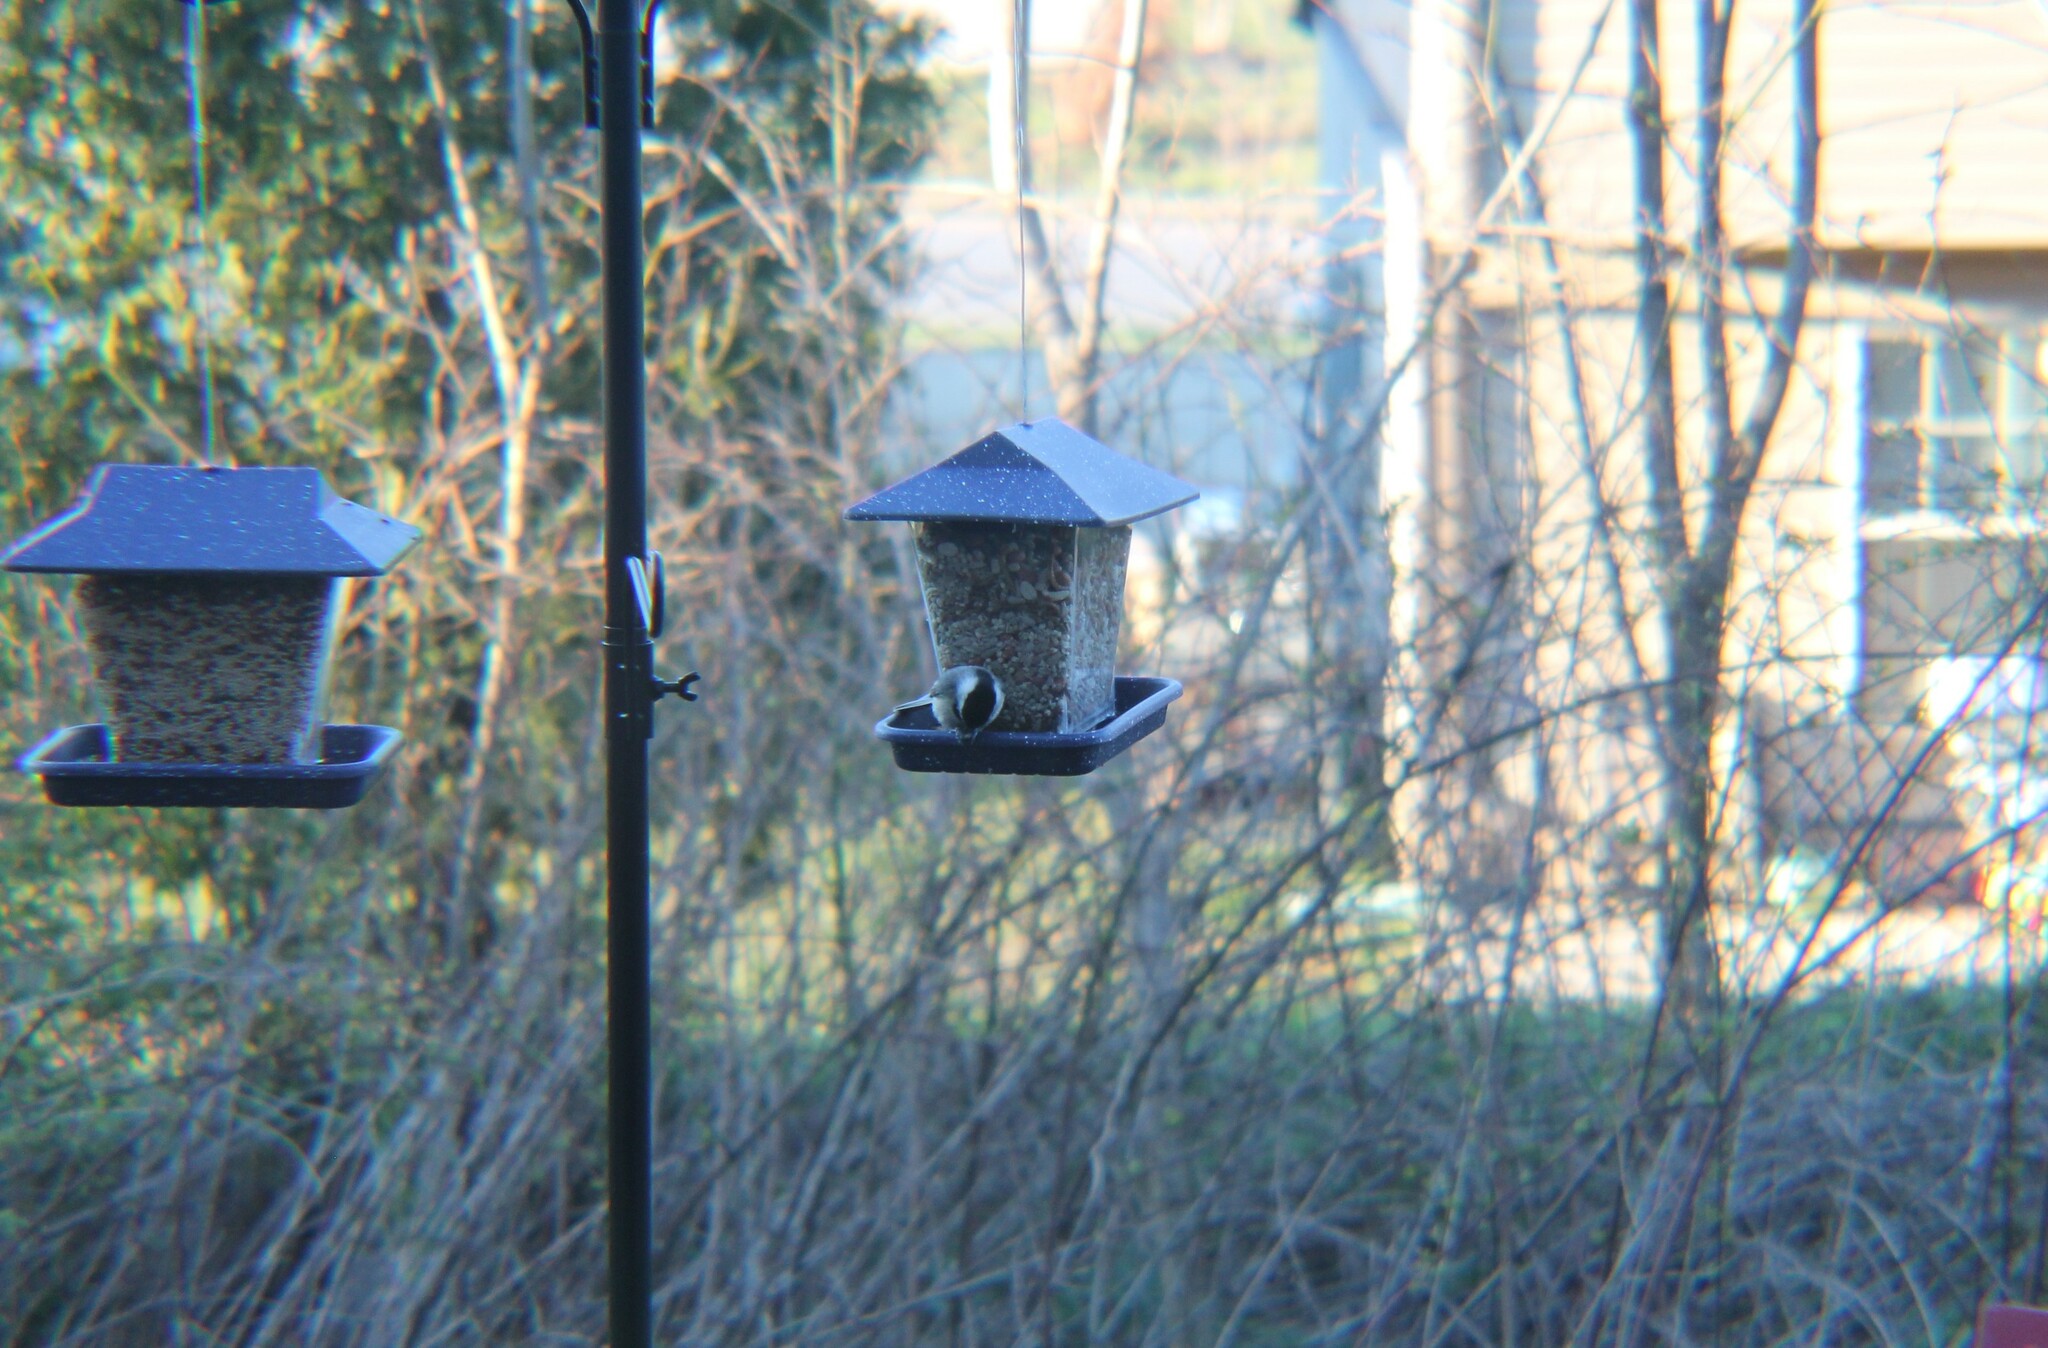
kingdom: Animalia
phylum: Chordata
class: Aves
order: Passeriformes
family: Paridae
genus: Poecile
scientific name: Poecile carolinensis
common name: Carolina chickadee
